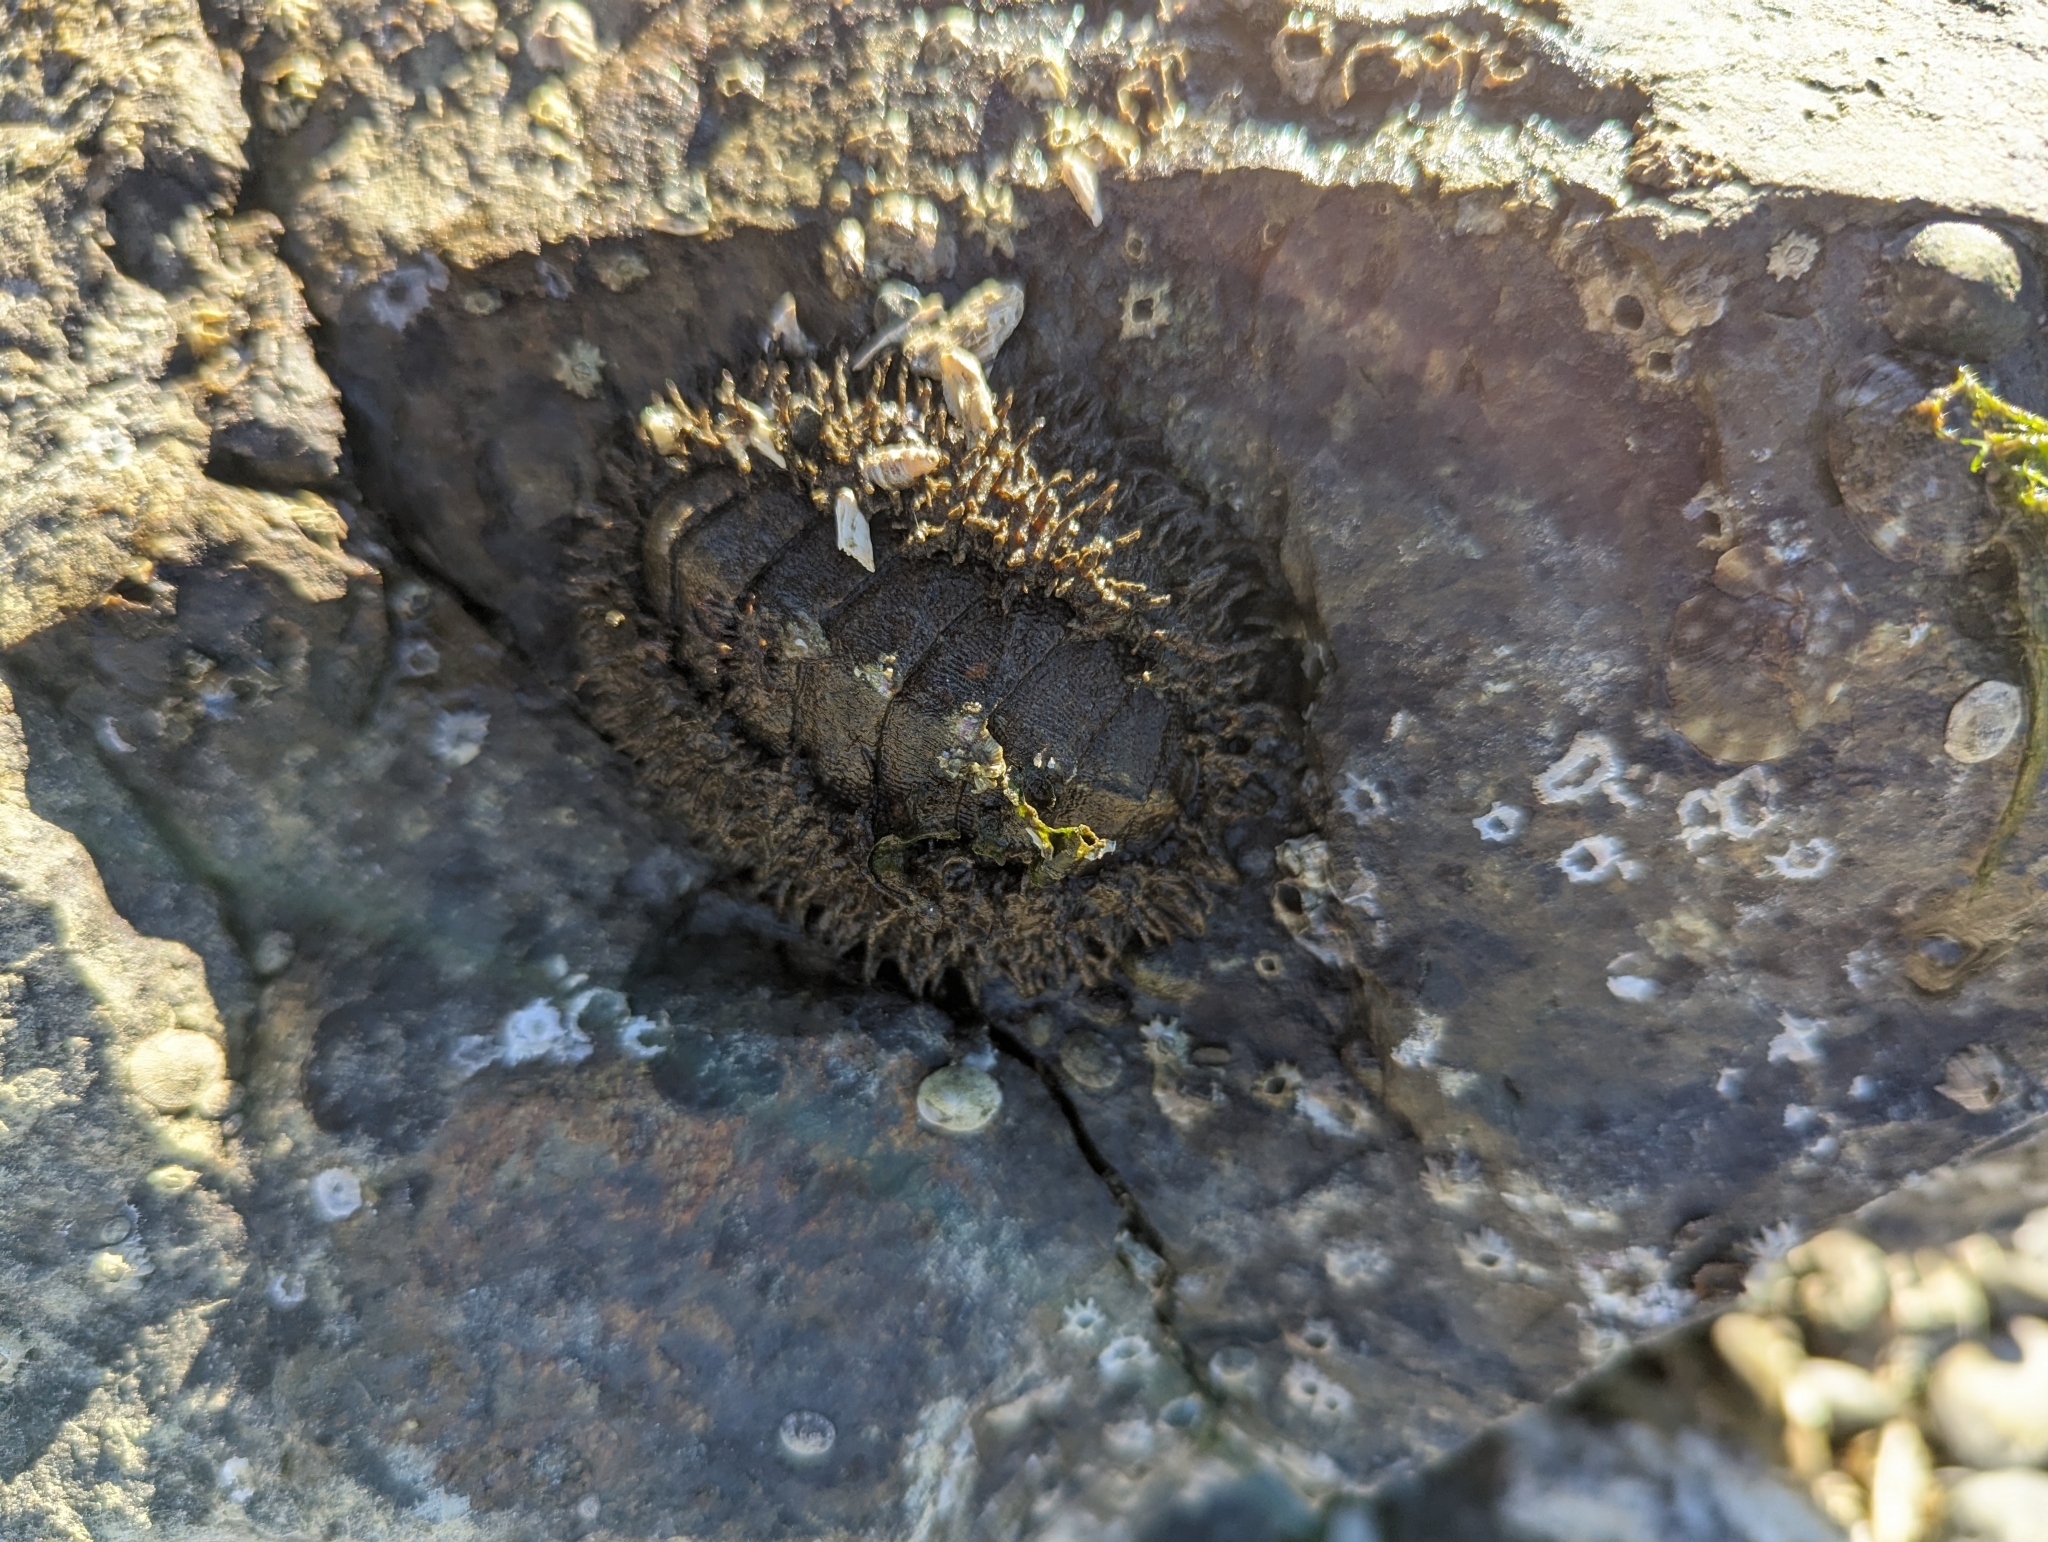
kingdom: Animalia
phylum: Mollusca
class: Polyplacophora
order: Chitonida
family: Mopaliidae
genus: Mopalia
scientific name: Mopalia muscosa
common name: Mossy chiton
